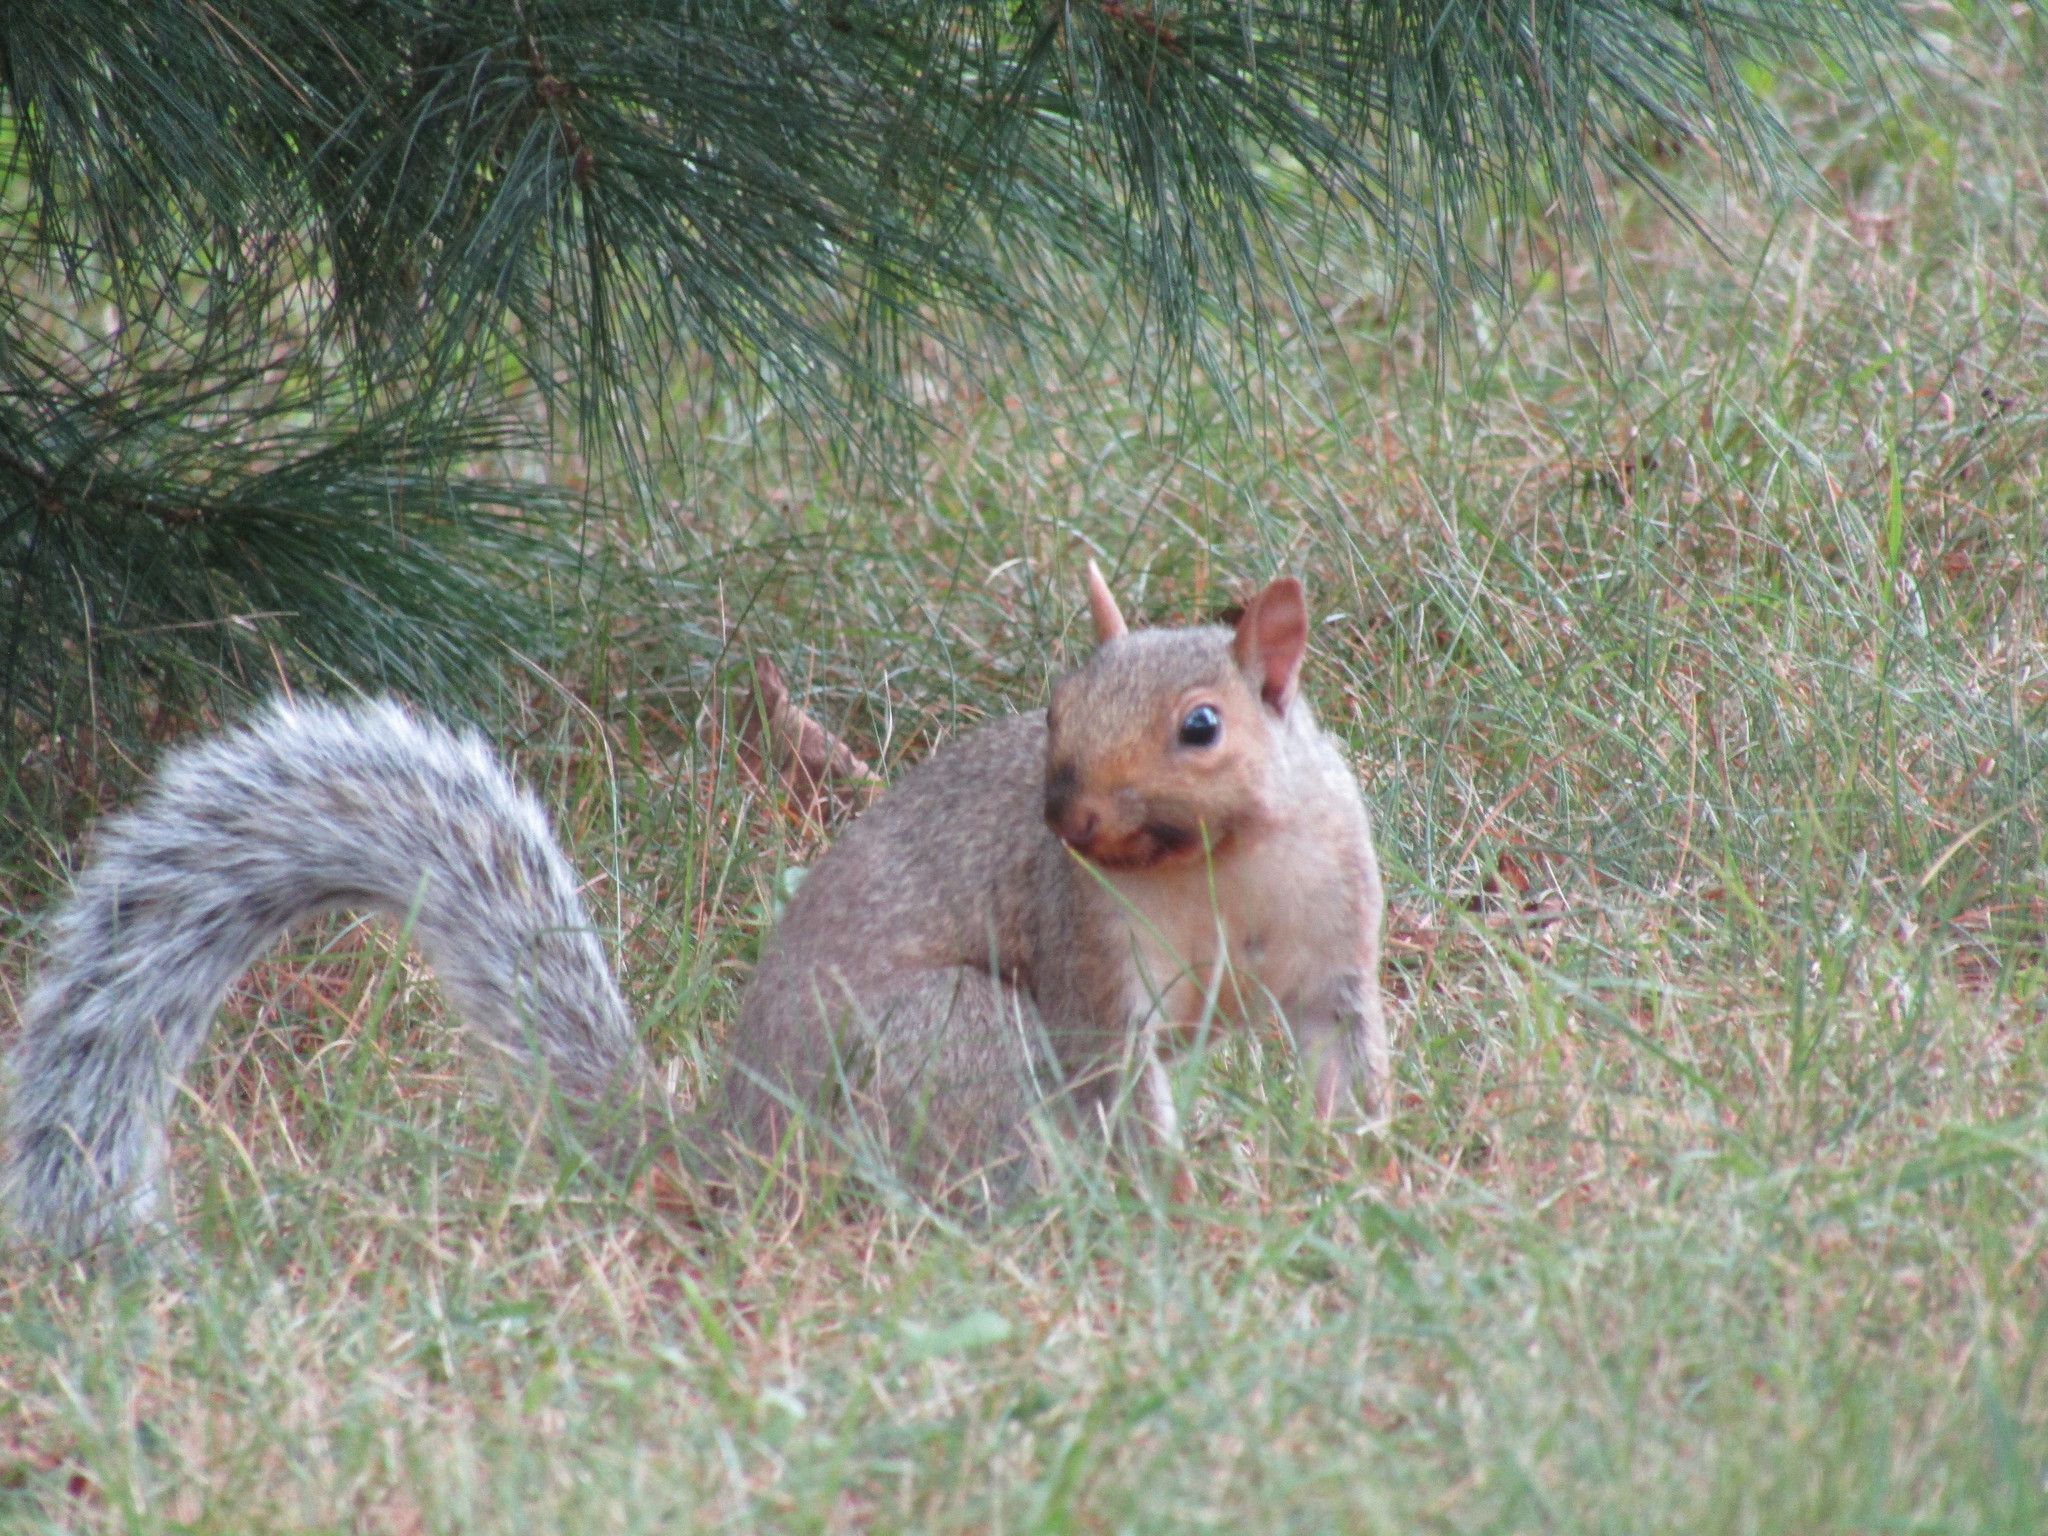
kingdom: Animalia
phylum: Chordata
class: Mammalia
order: Rodentia
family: Sciuridae
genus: Sciurus
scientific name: Sciurus carolinensis
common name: Eastern gray squirrel
